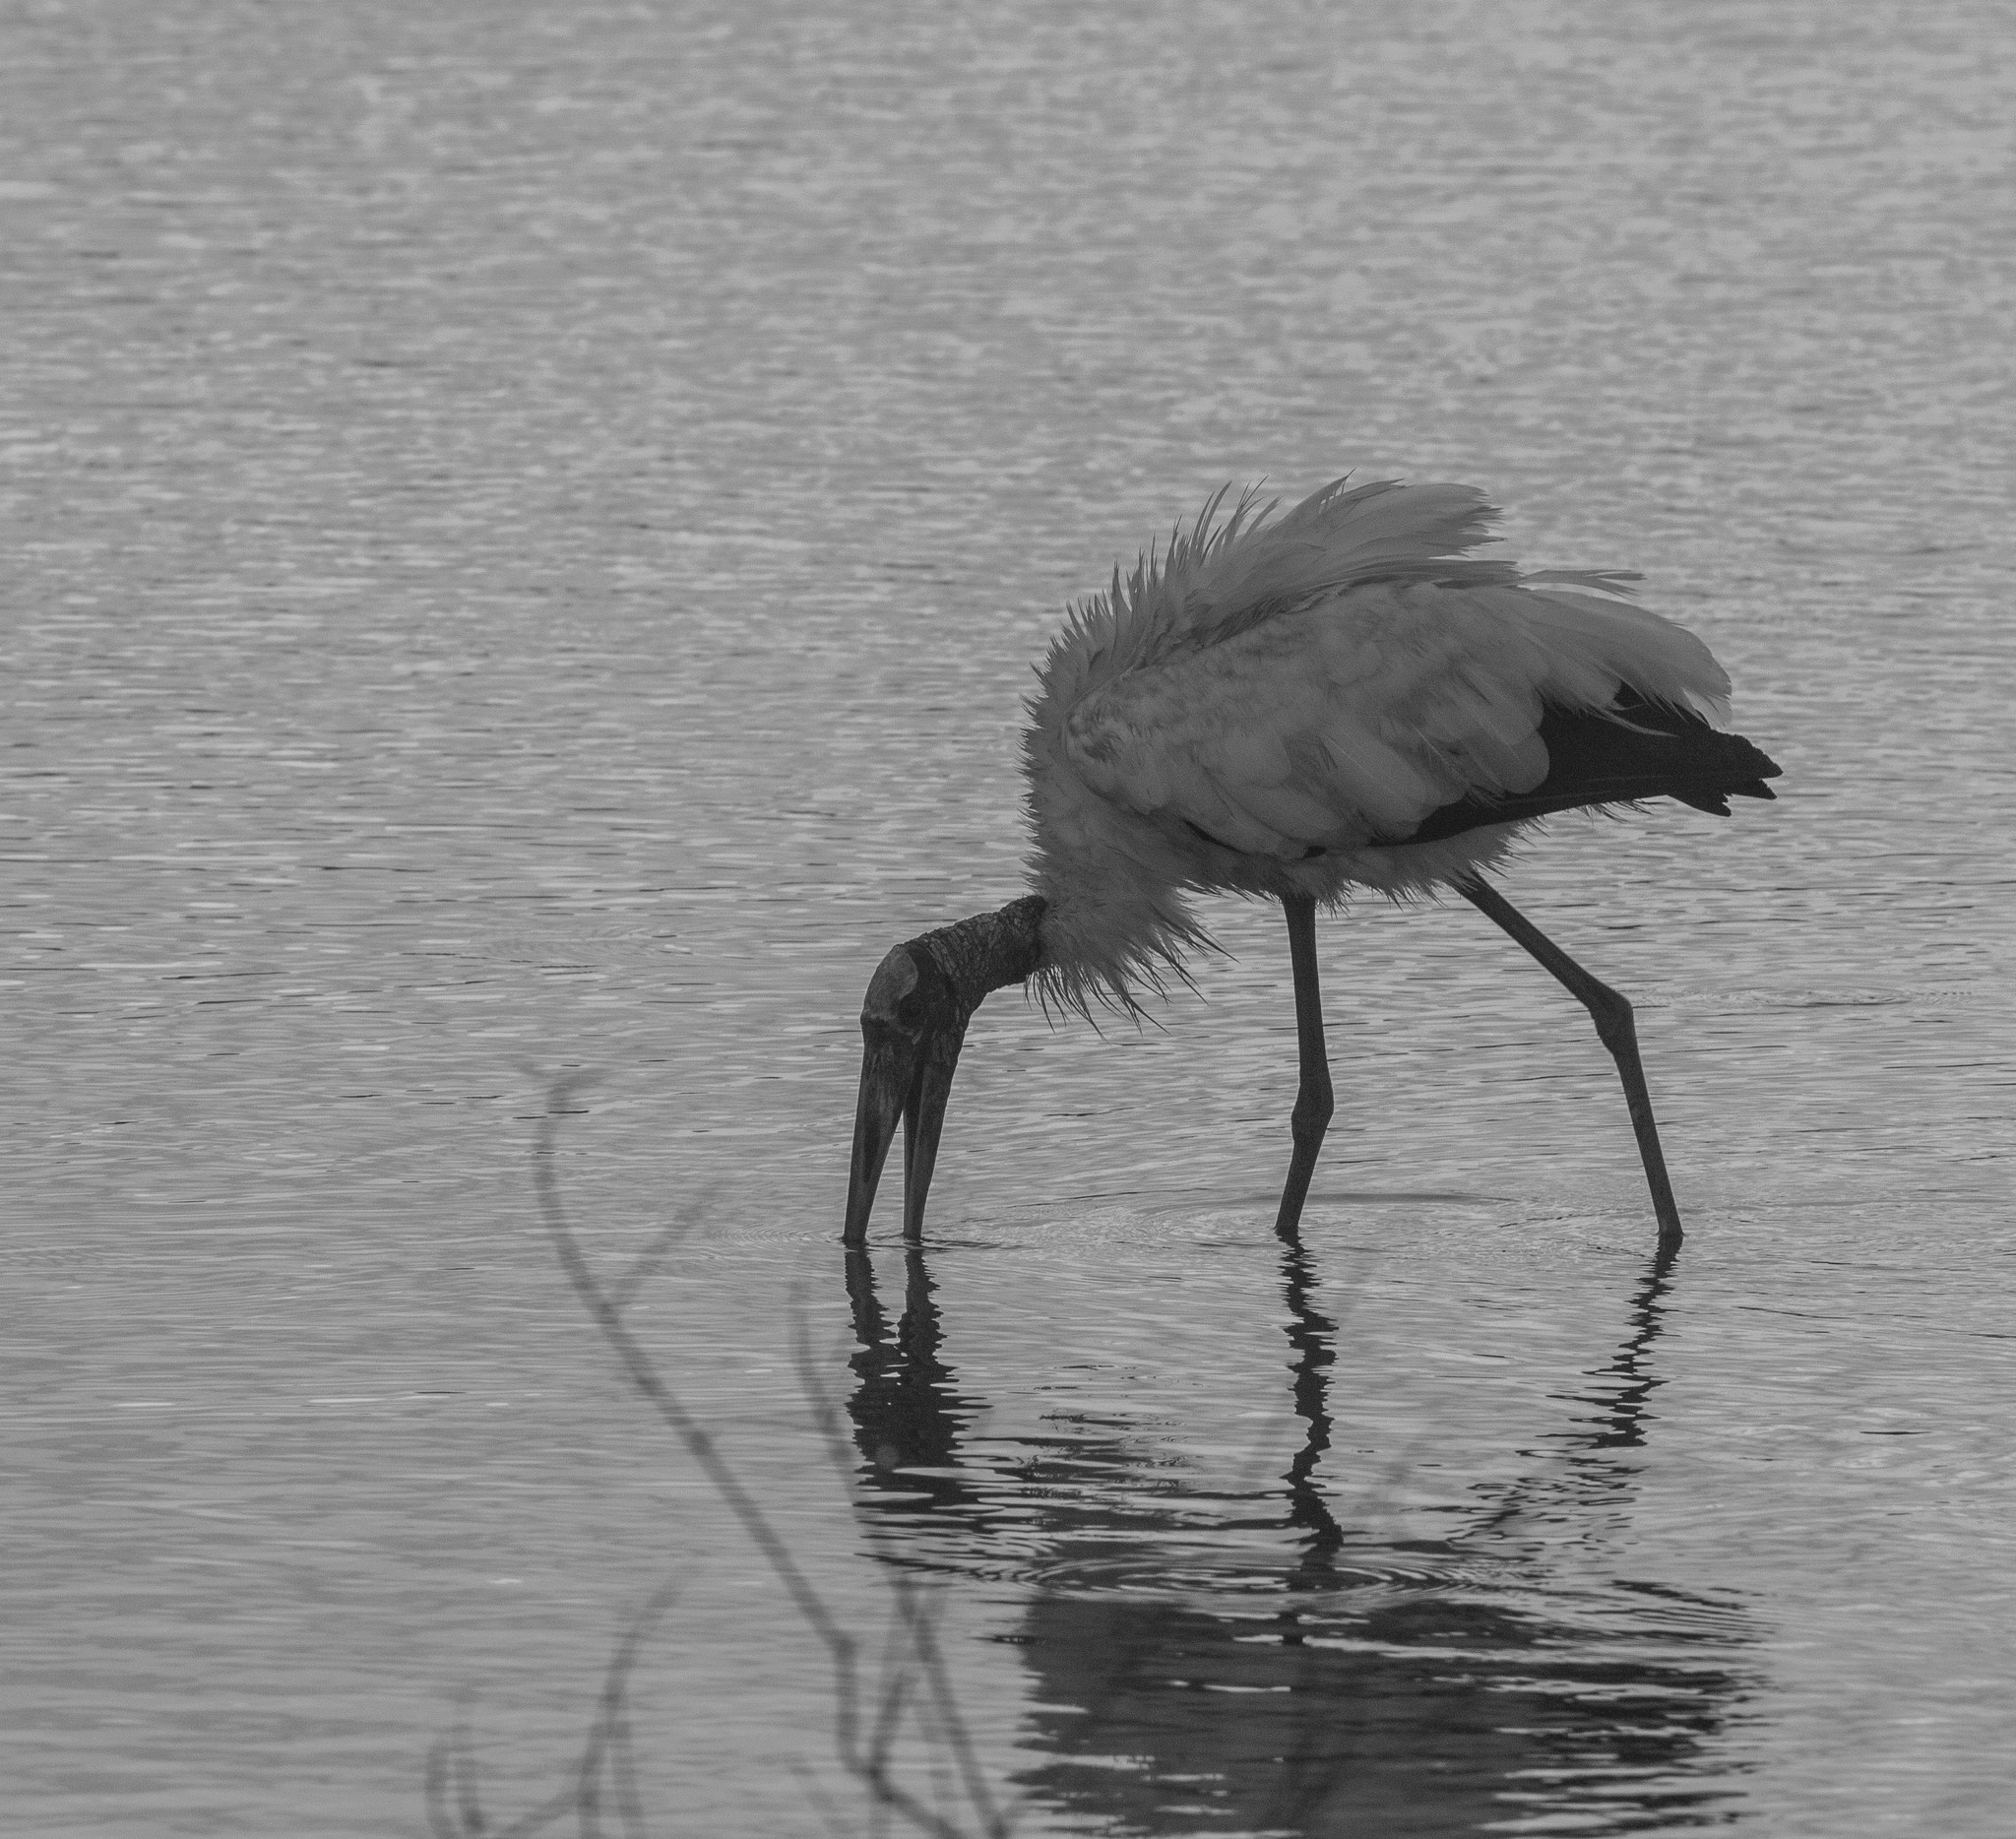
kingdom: Animalia
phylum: Chordata
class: Aves
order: Ciconiiformes
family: Ciconiidae
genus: Mycteria
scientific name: Mycteria americana
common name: Wood stork
